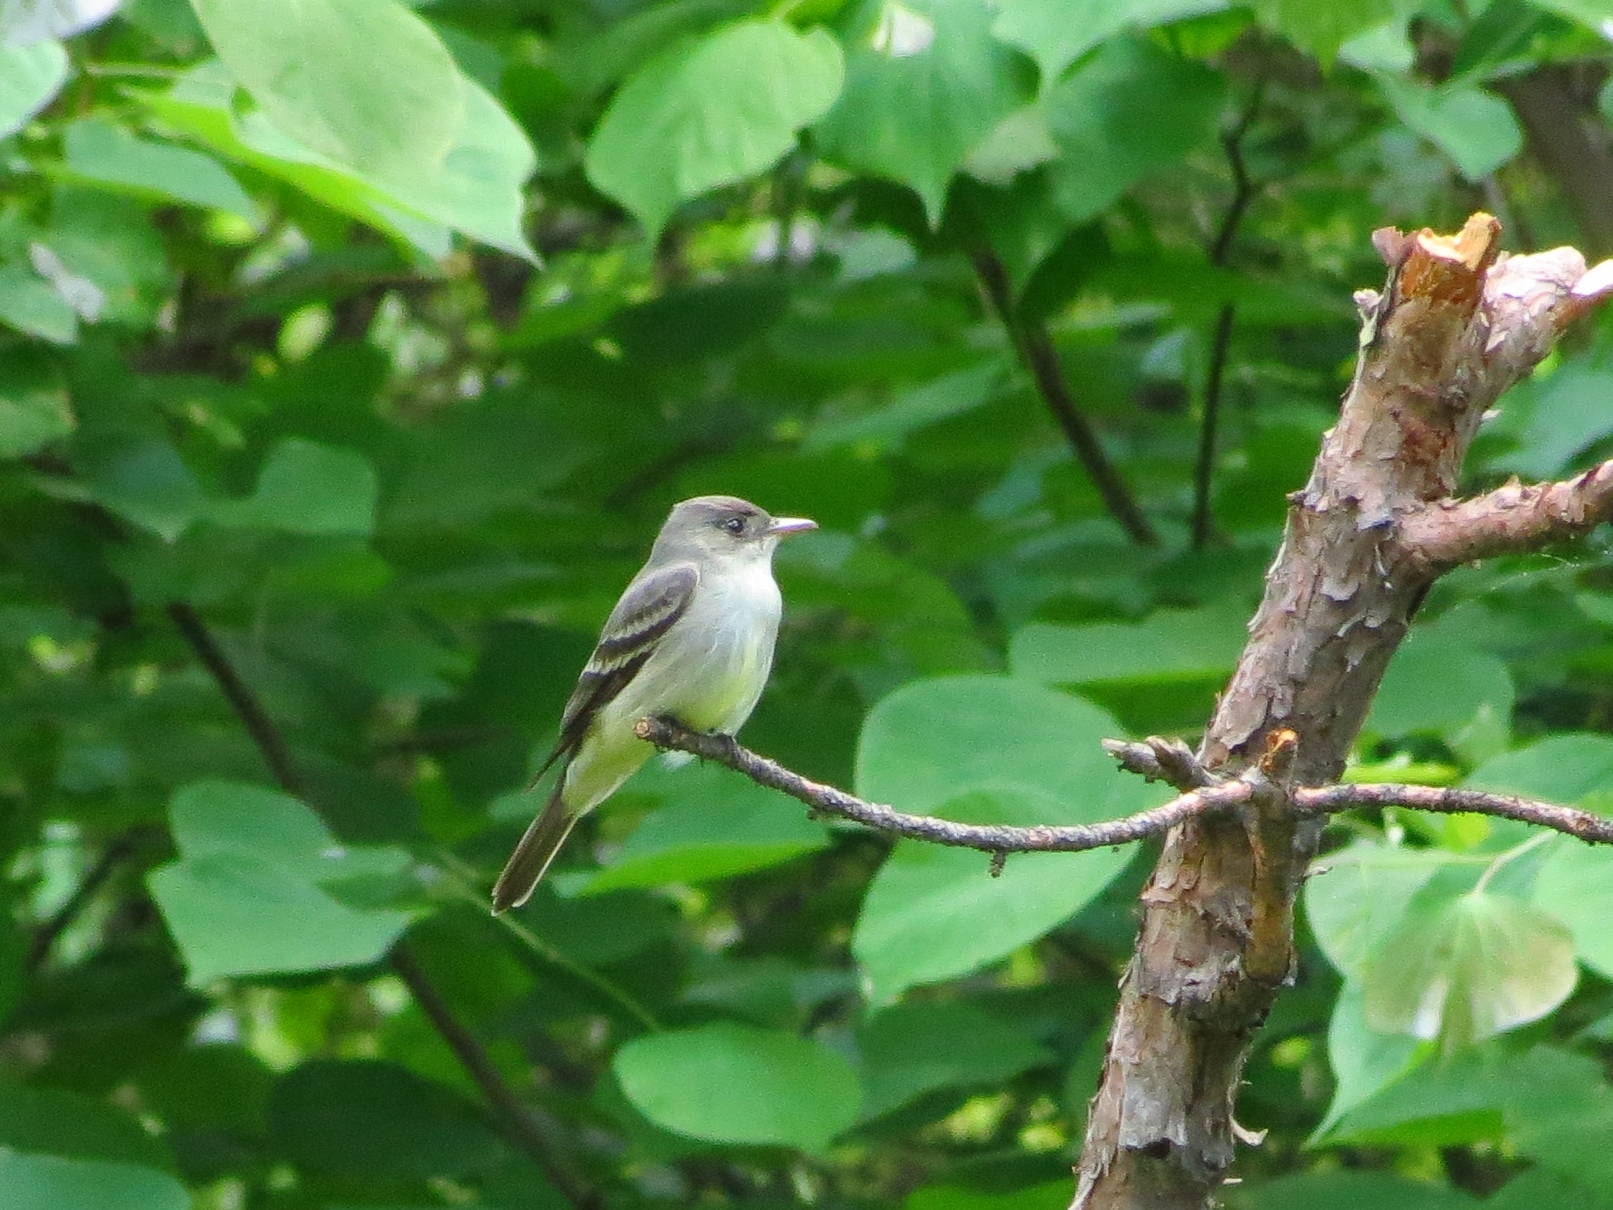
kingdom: Animalia
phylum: Chordata
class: Aves
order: Passeriformes
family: Tyrannidae
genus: Contopus
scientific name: Contopus virens
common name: Eastern wood-pewee
